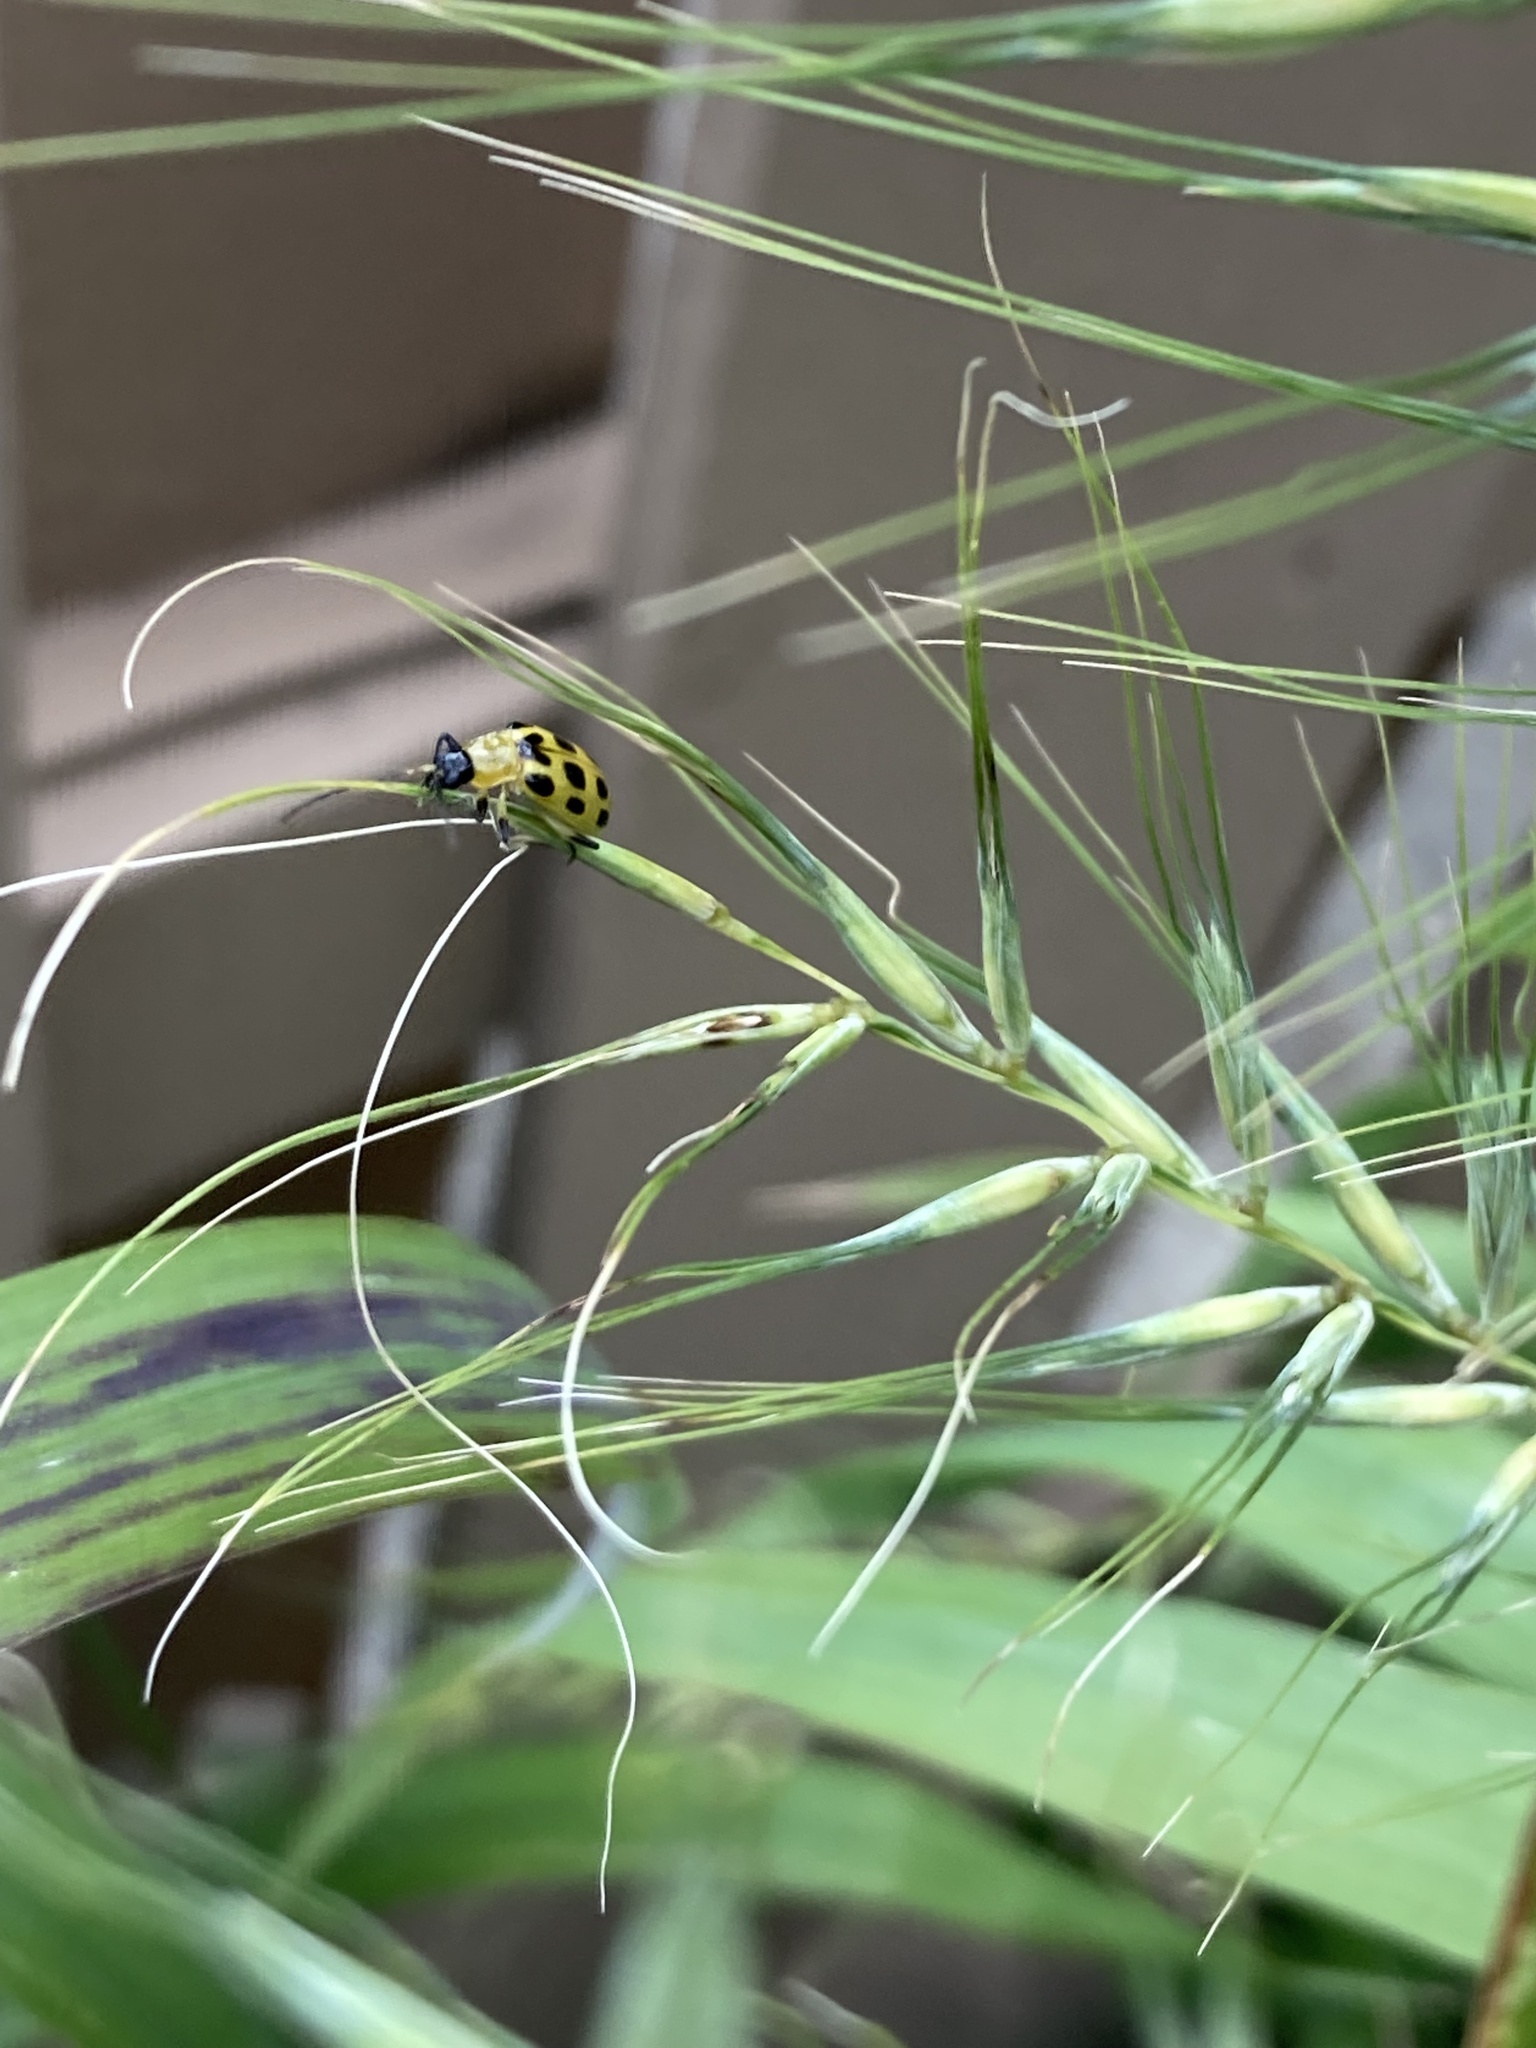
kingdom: Animalia
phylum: Arthropoda
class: Insecta
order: Coleoptera
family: Chrysomelidae
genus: Diabrotica
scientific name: Diabrotica undecimpunctata
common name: Spotted cucumber beetle
